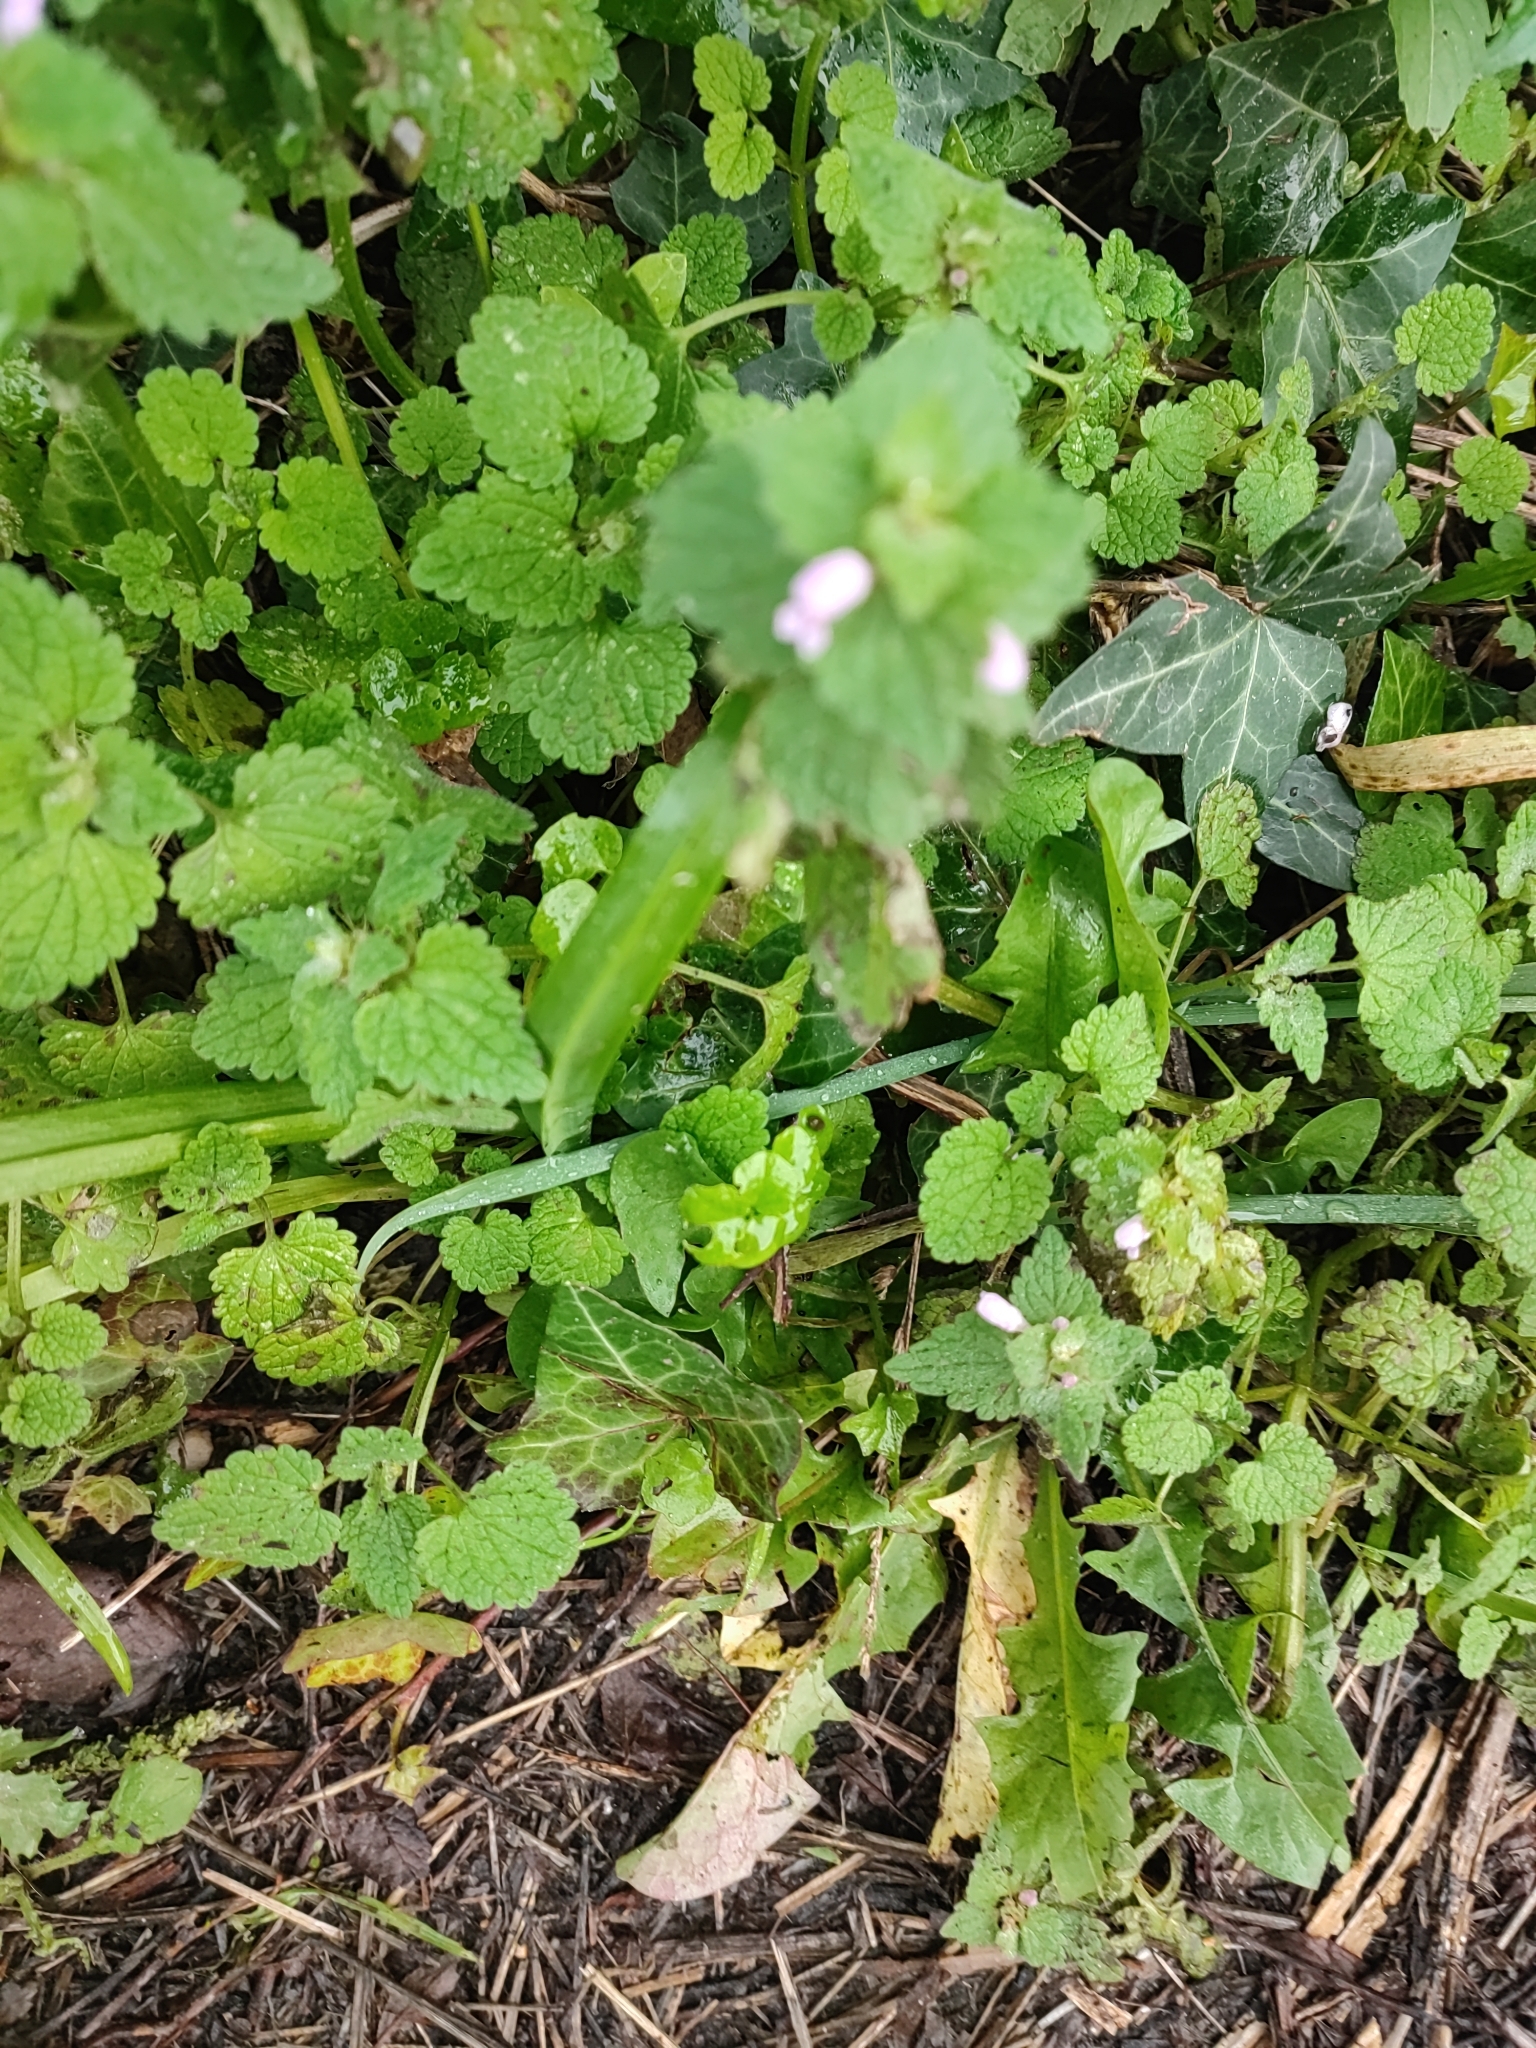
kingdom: Plantae
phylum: Tracheophyta
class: Magnoliopsida
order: Lamiales
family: Lamiaceae
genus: Lamium
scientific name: Lamium purpureum
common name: Red dead-nettle
